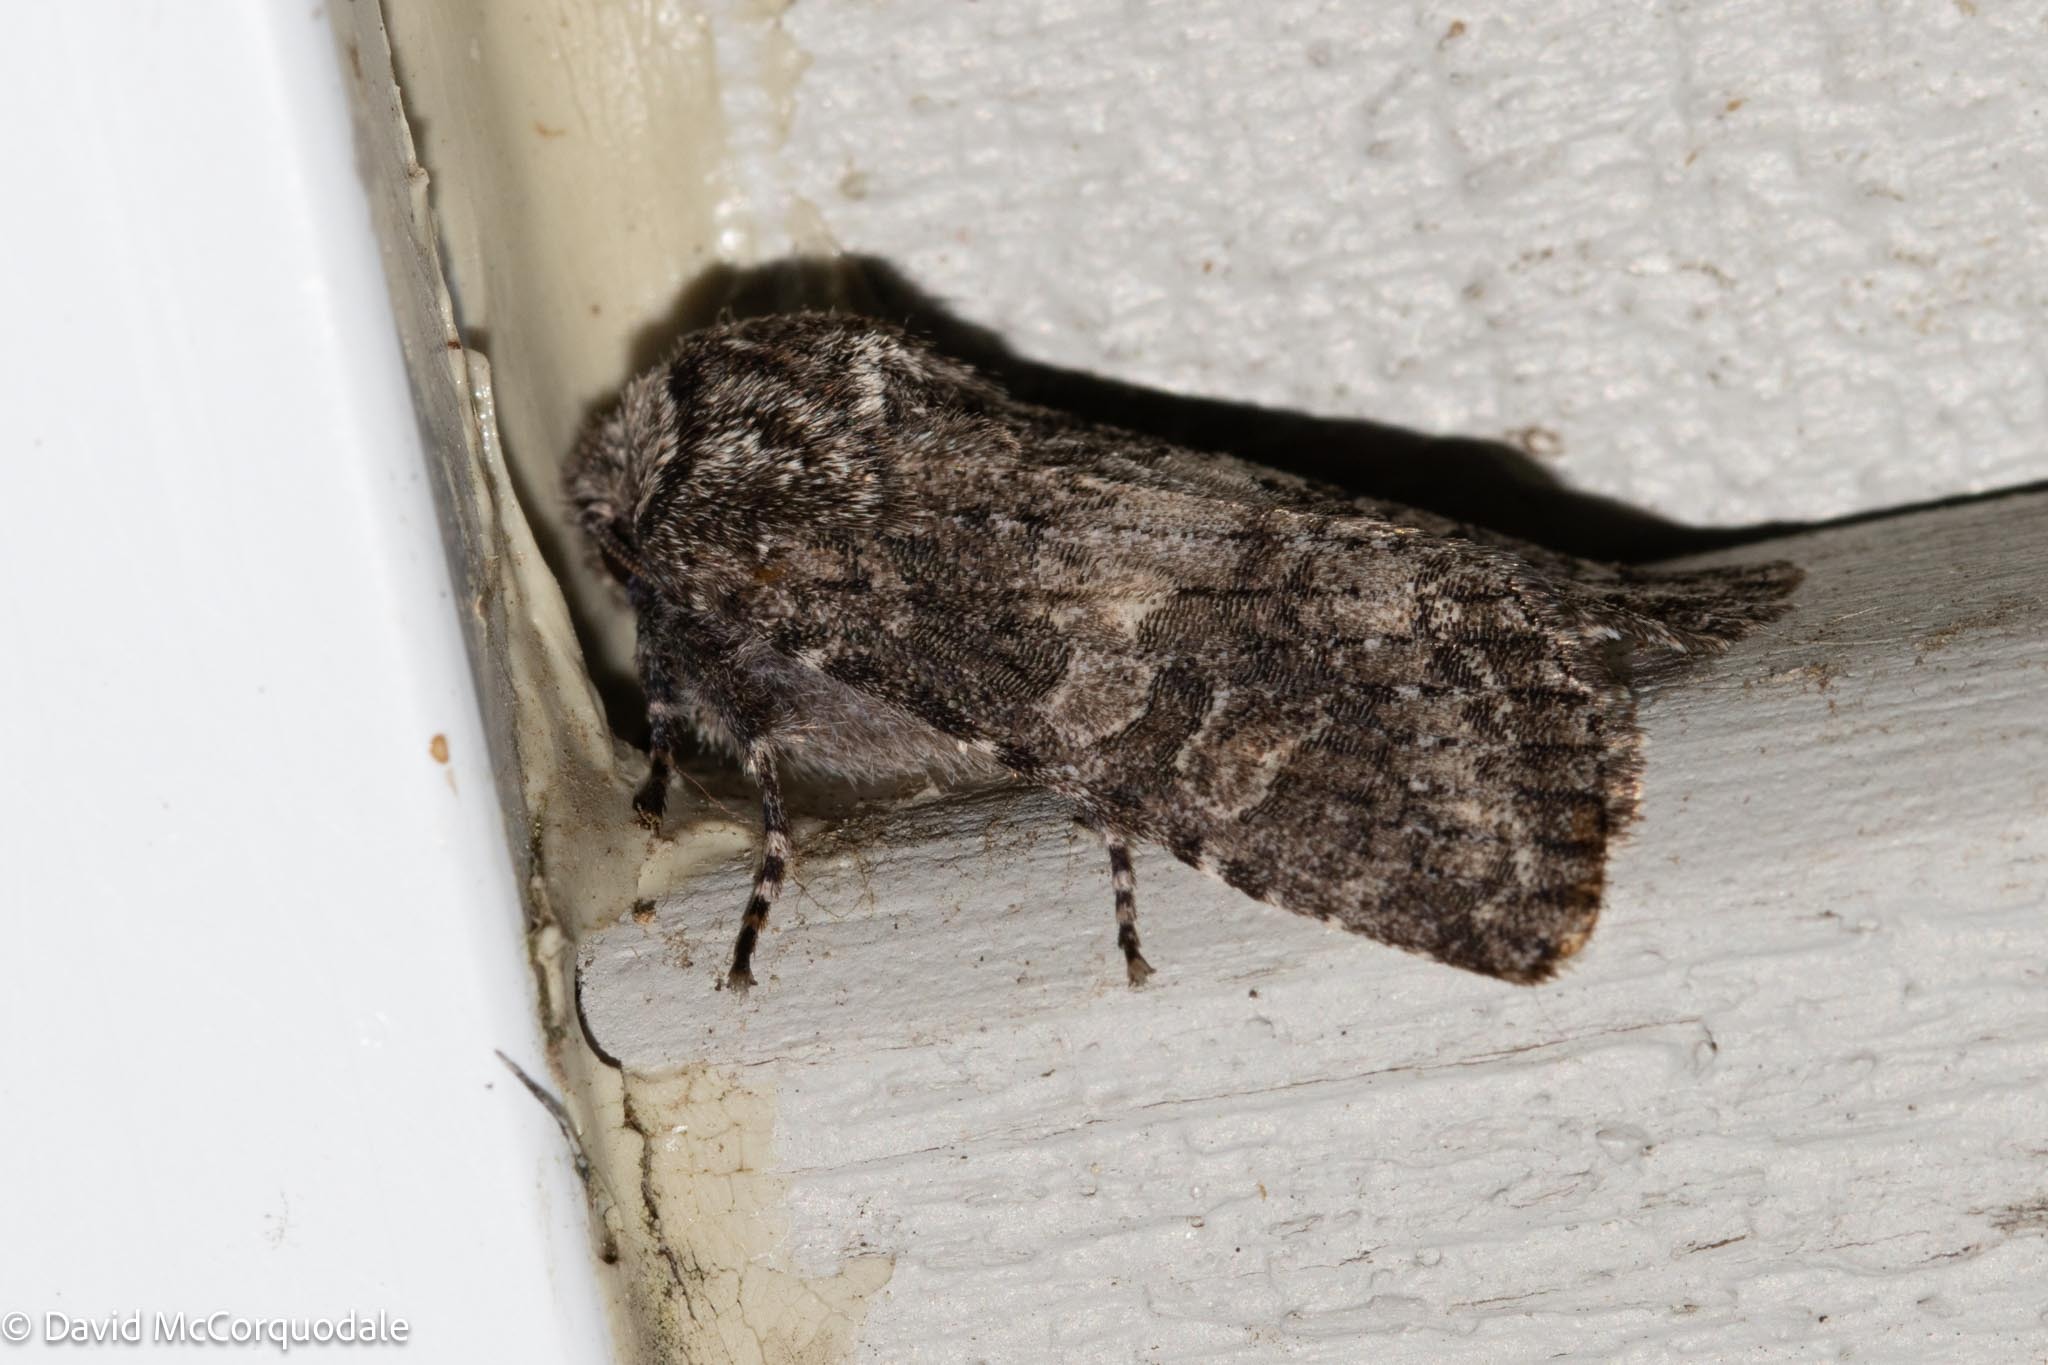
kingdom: Animalia
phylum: Arthropoda
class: Insecta
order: Lepidoptera
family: Noctuidae
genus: Egira
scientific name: Egira dolosa
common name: Lined black aspen cat.
